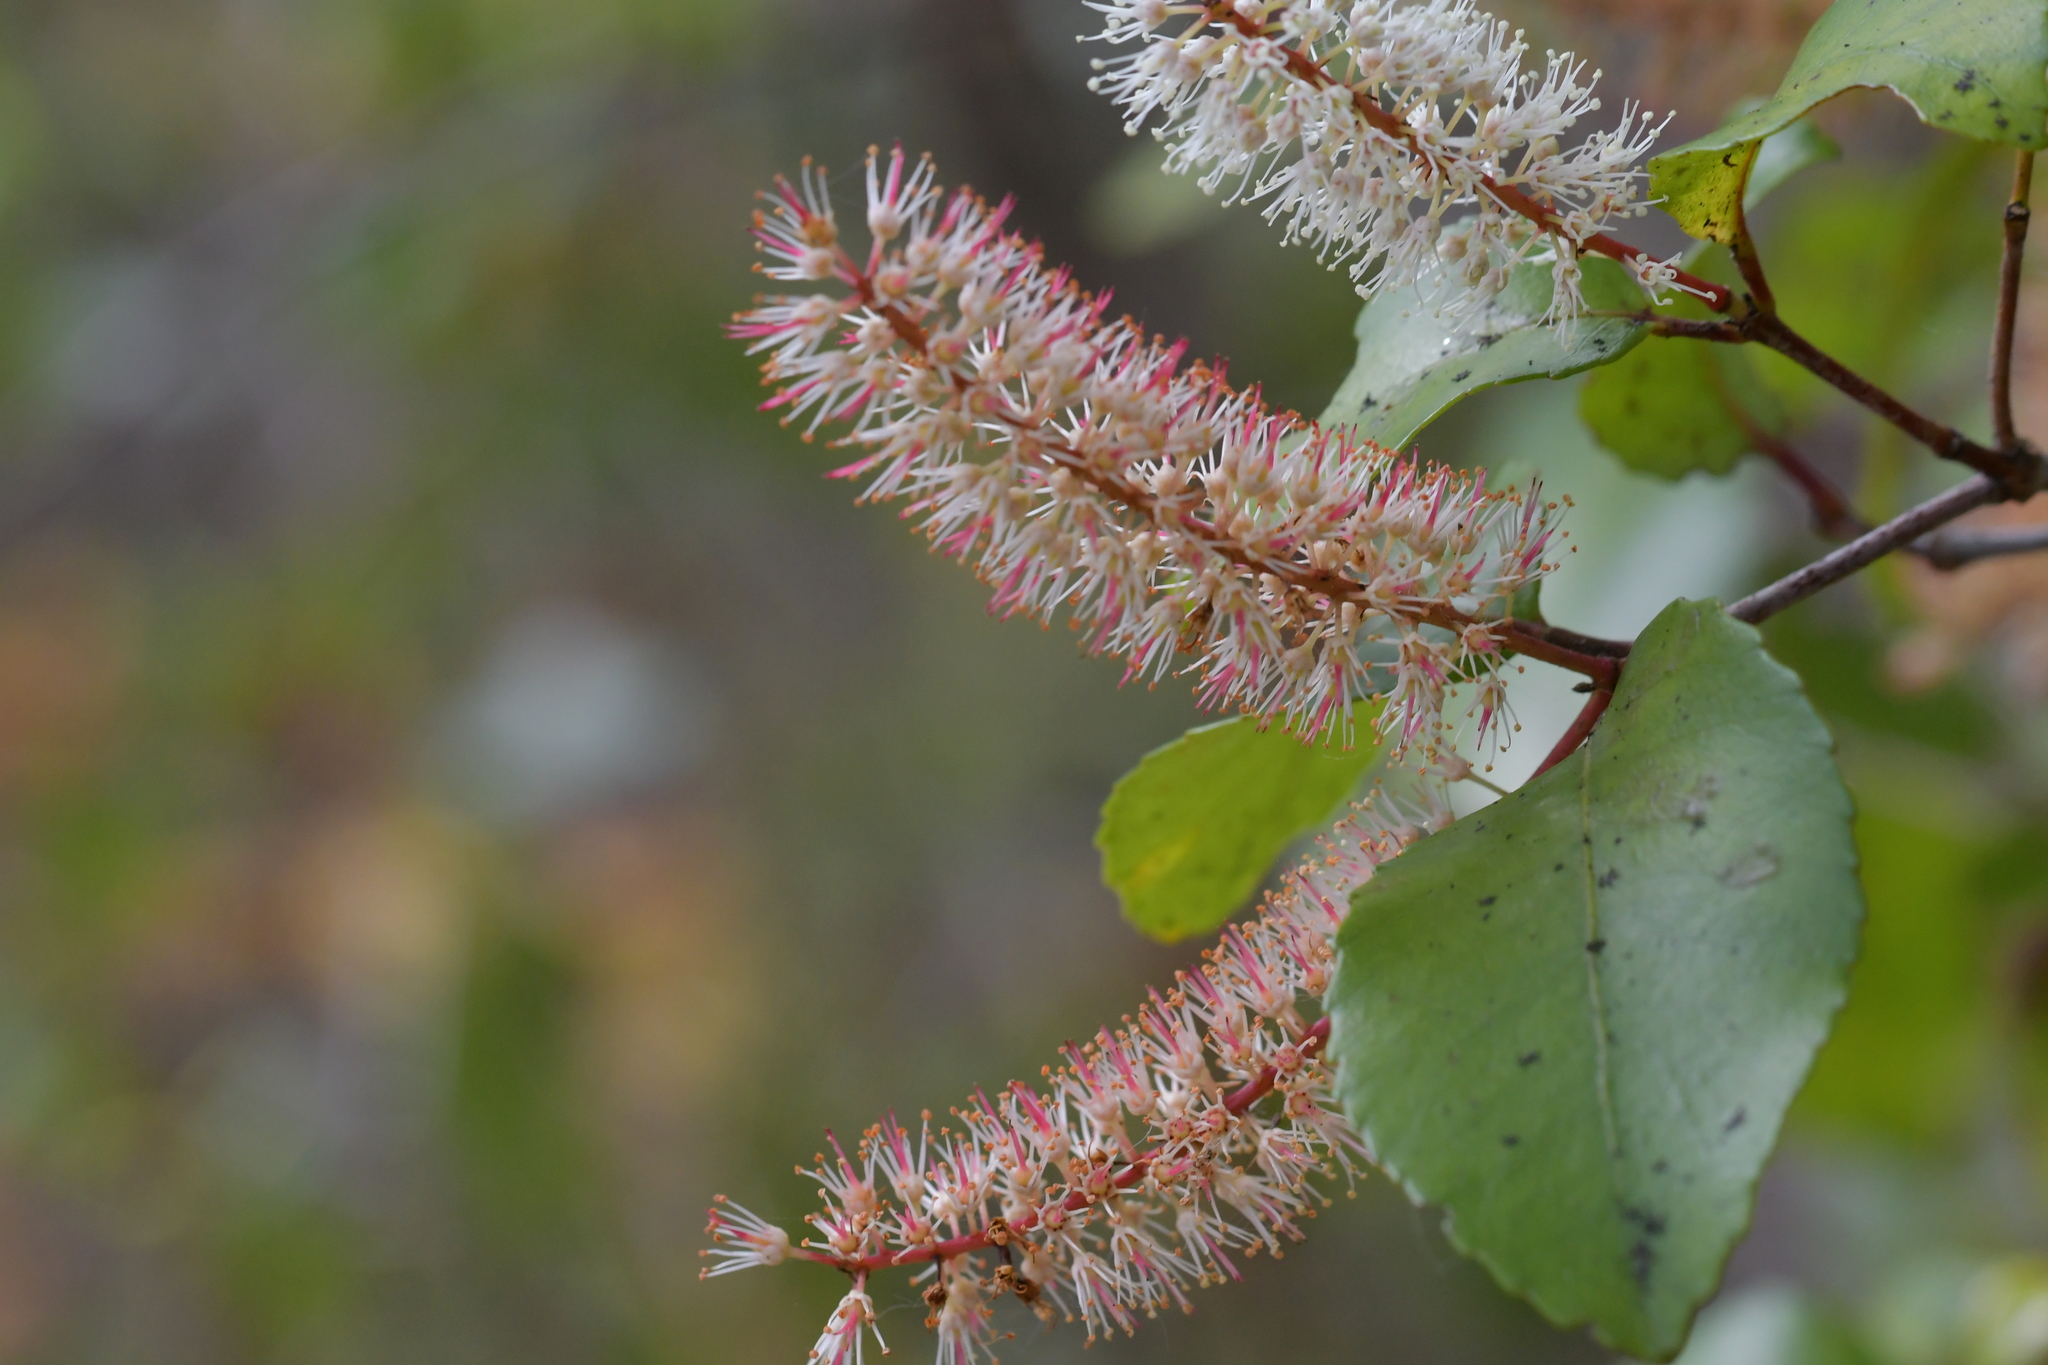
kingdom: Plantae
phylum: Tracheophyta
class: Magnoliopsida
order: Oxalidales
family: Cunoniaceae
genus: Pterophylla
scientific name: Pterophylla racemosa
